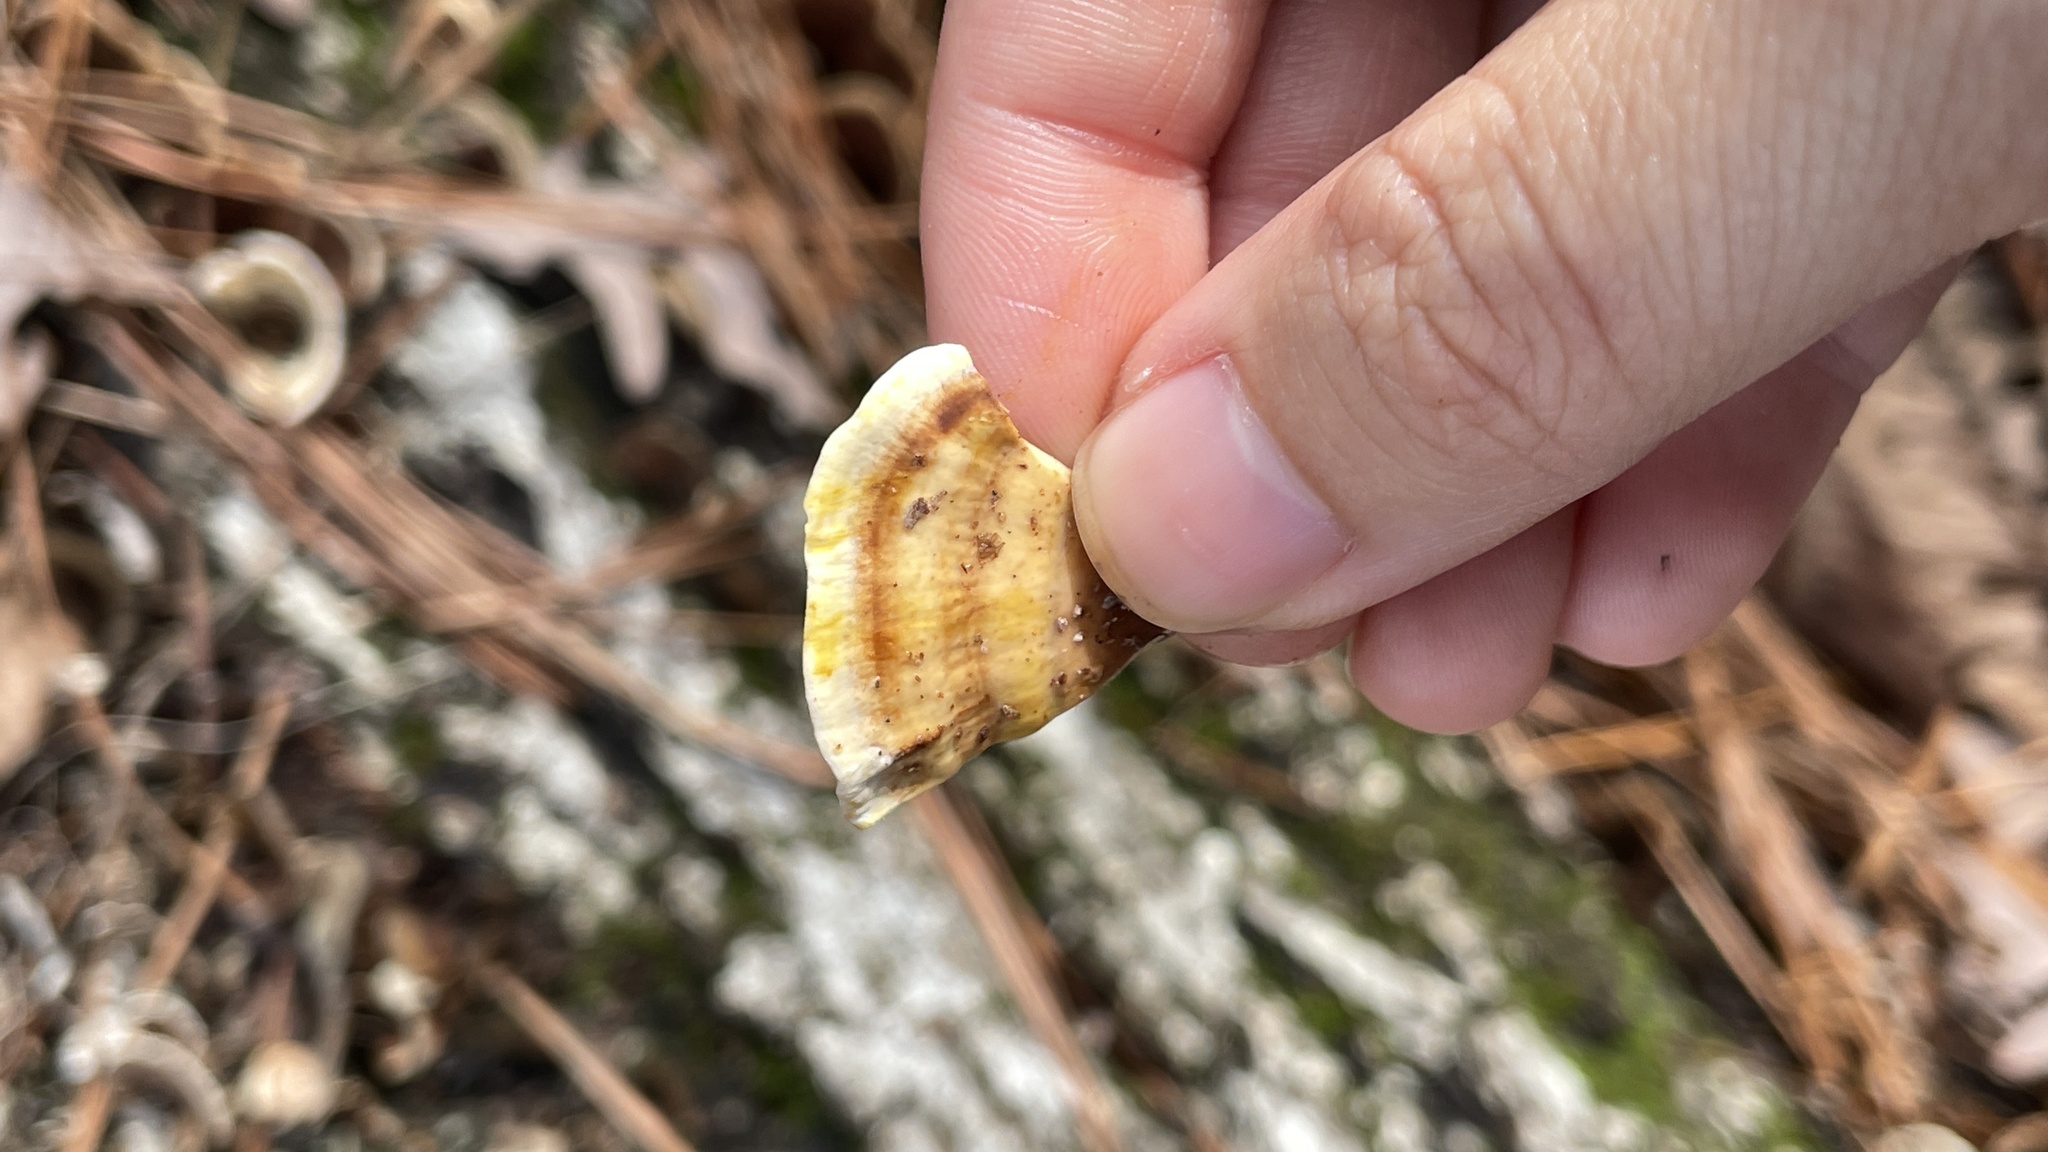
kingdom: Fungi
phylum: Basidiomycota
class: Agaricomycetes
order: Russulales
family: Stereaceae
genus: Stereum
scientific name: Stereum lobatum
